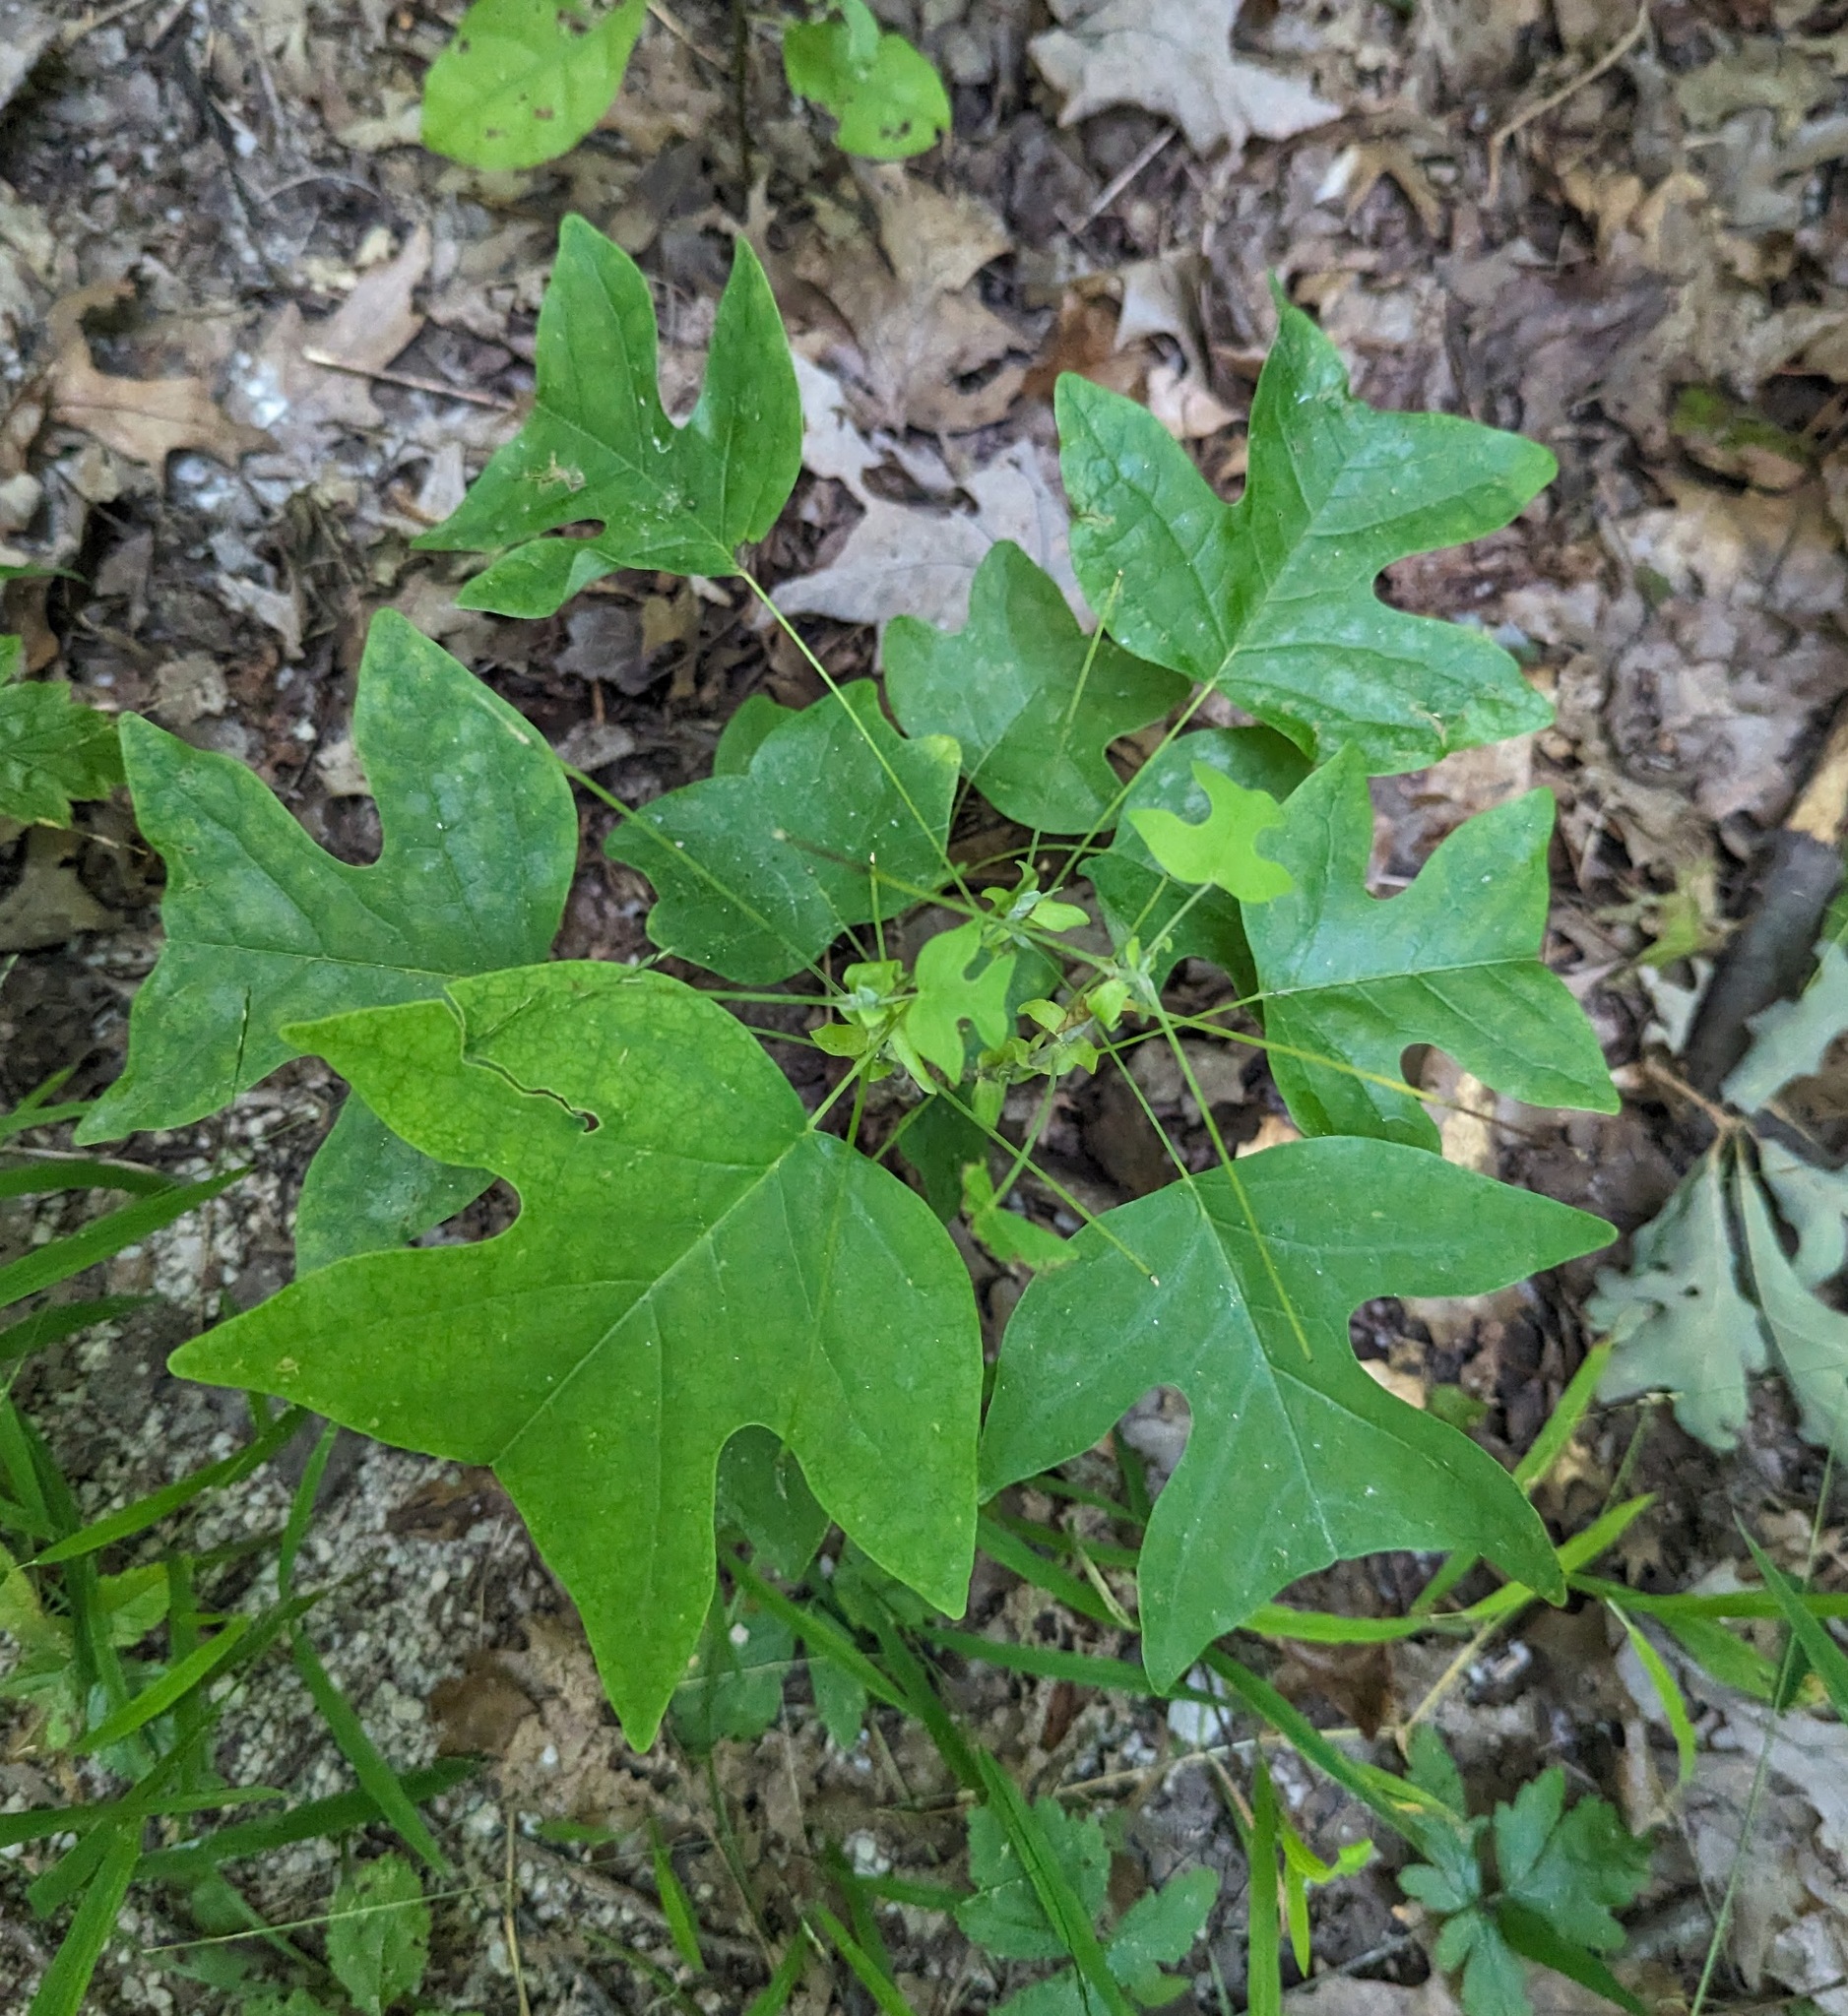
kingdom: Plantae
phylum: Tracheophyta
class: Magnoliopsida
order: Magnoliales
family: Magnoliaceae
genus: Liriodendron
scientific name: Liriodendron tulipifera
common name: Tulip tree
